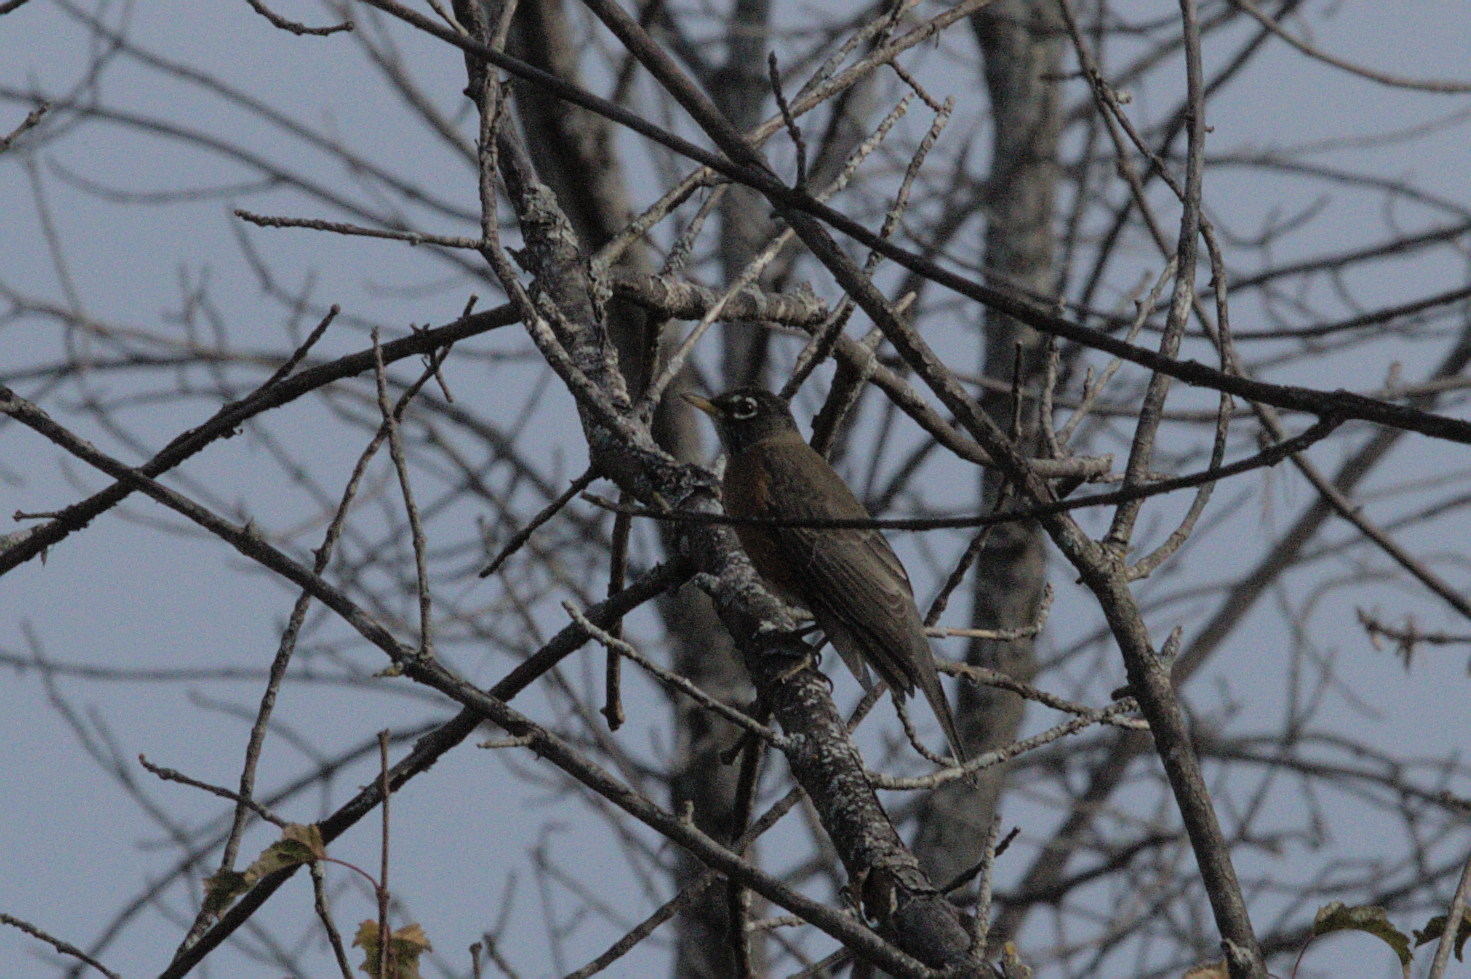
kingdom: Animalia
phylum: Chordata
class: Aves
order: Passeriformes
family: Turdidae
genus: Turdus
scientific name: Turdus migratorius
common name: American robin
